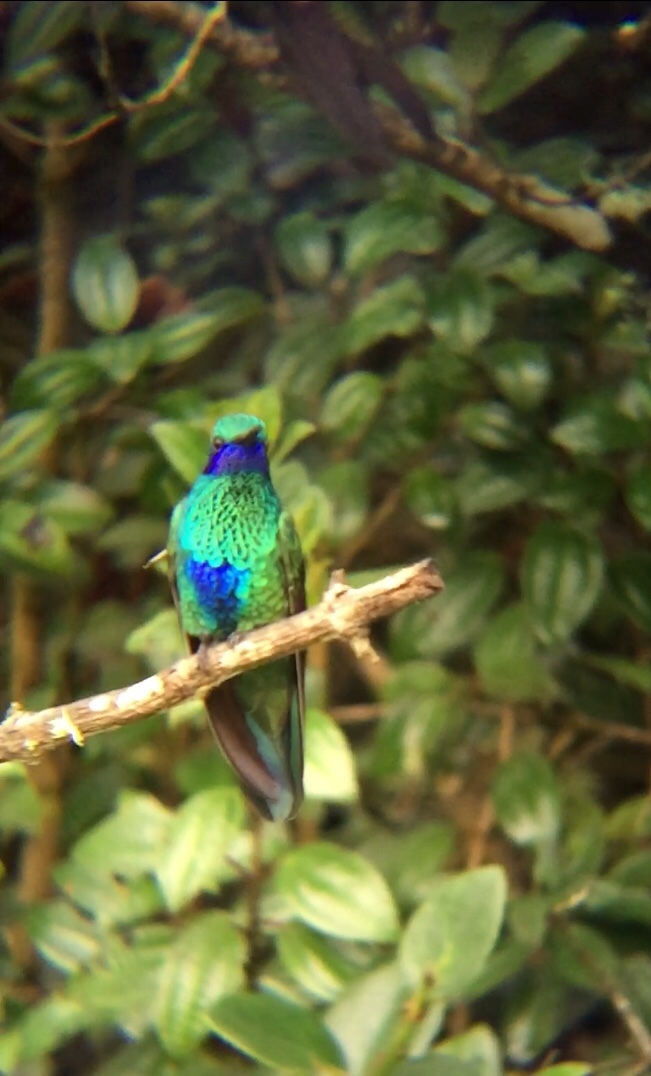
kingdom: Animalia
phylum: Chordata
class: Aves
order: Apodiformes
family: Trochilidae
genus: Colibri
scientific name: Colibri coruscans
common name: Sparkling violetear
